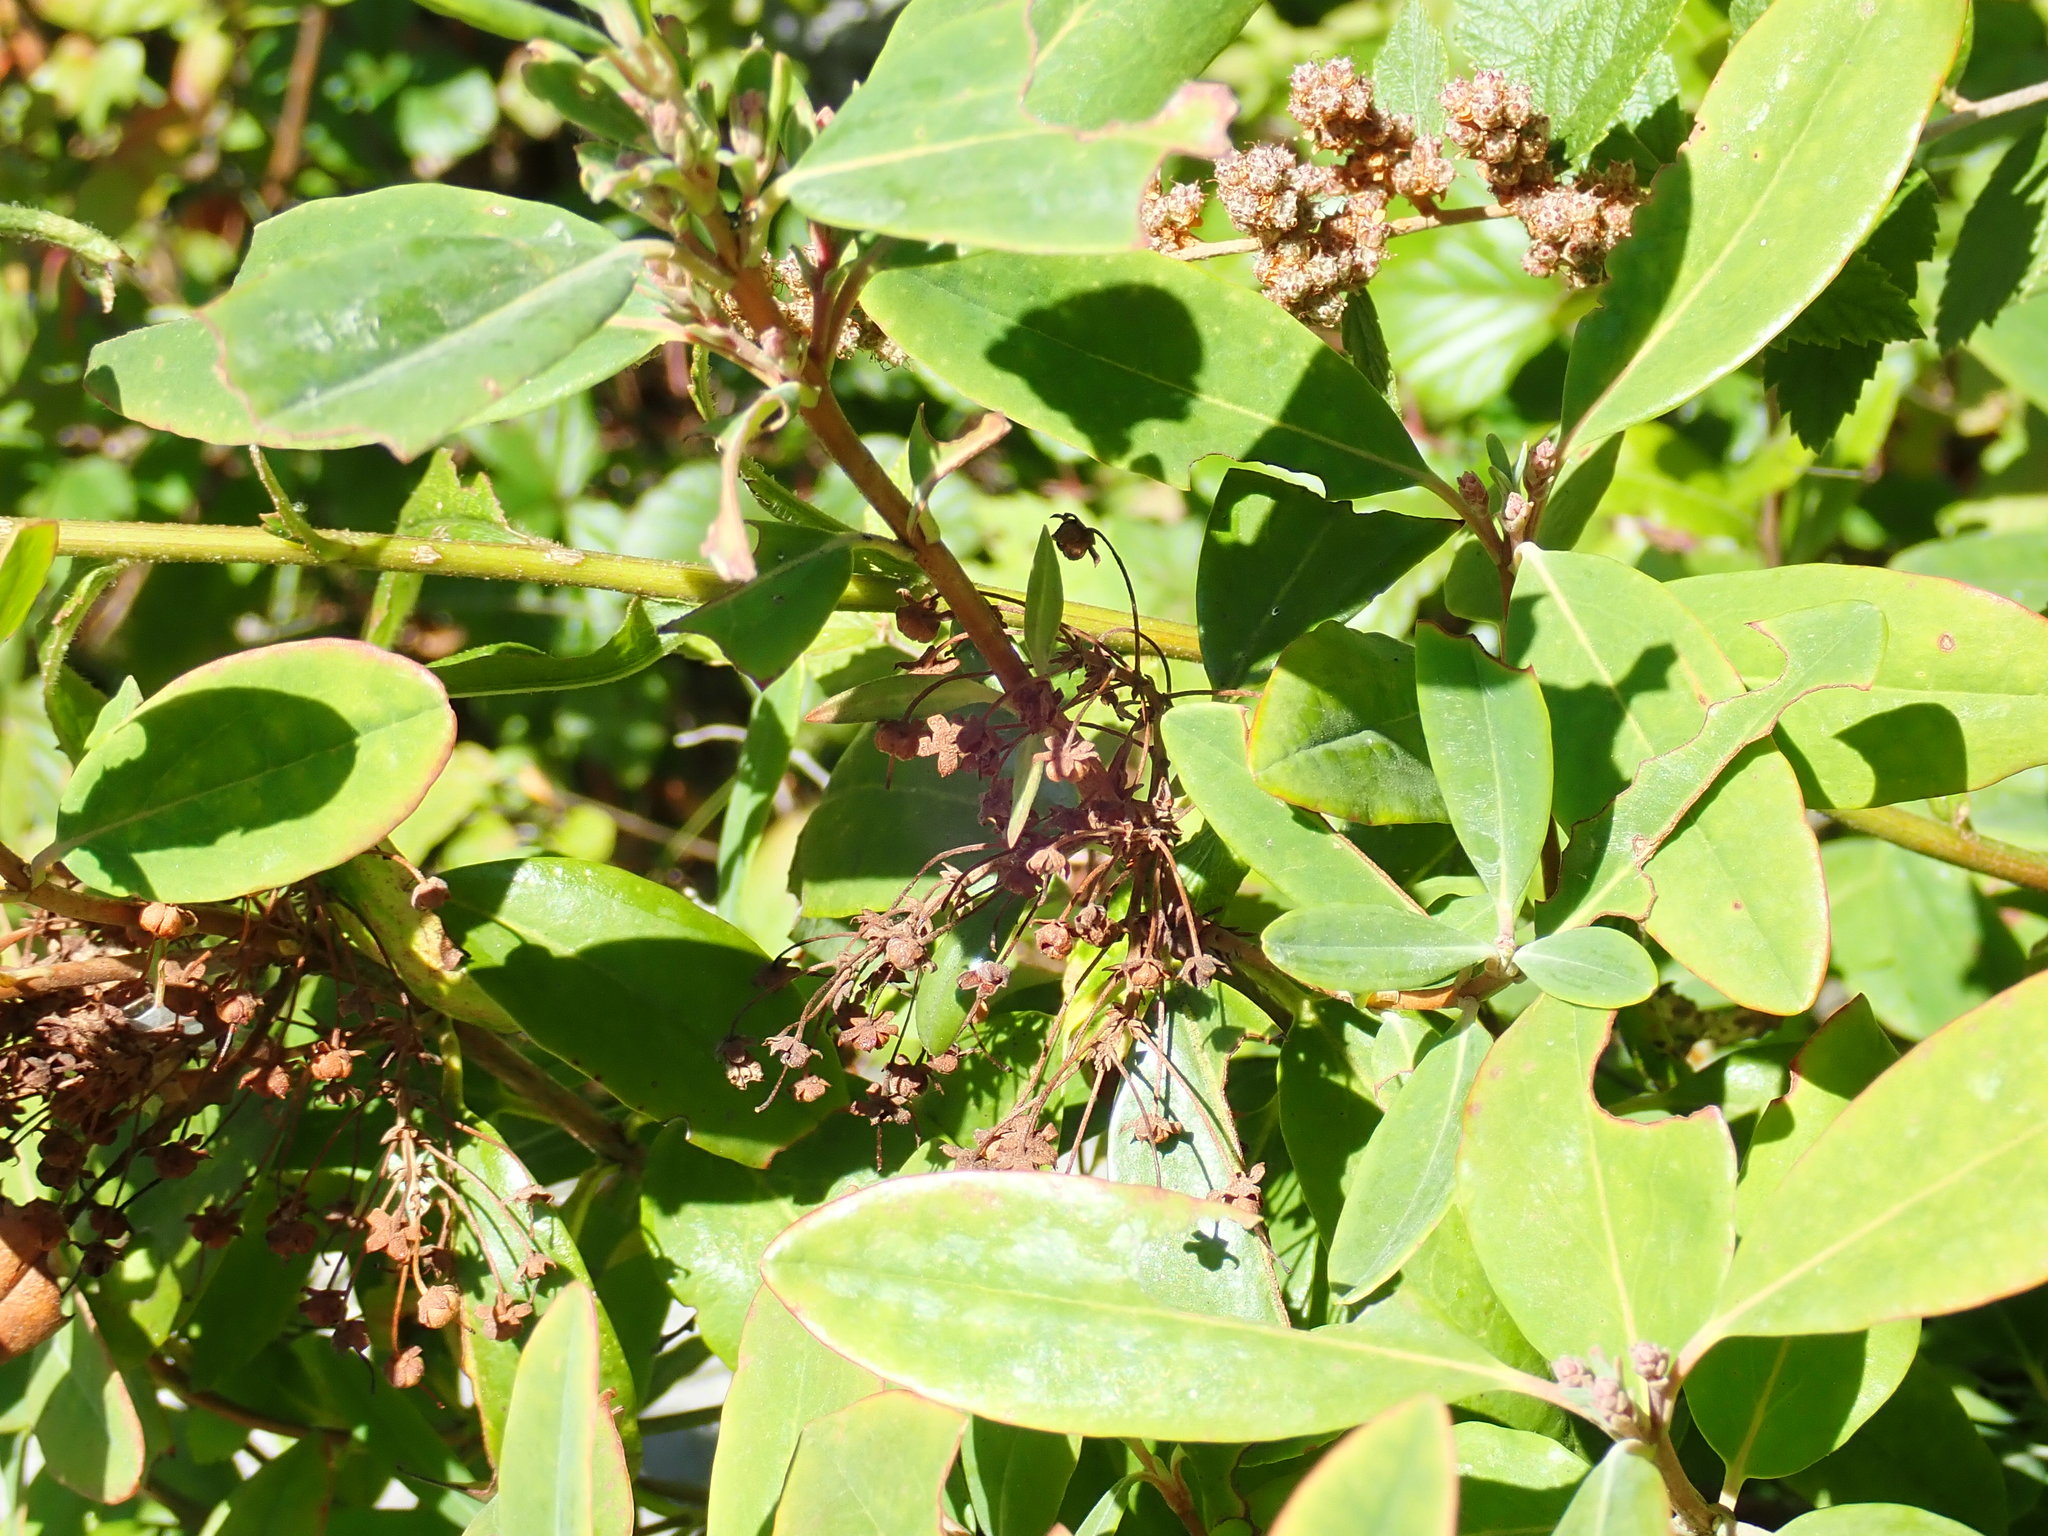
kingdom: Plantae
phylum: Tracheophyta
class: Magnoliopsida
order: Ericales
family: Ericaceae
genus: Kalmia
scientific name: Kalmia angustifolia
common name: Sheep-laurel
